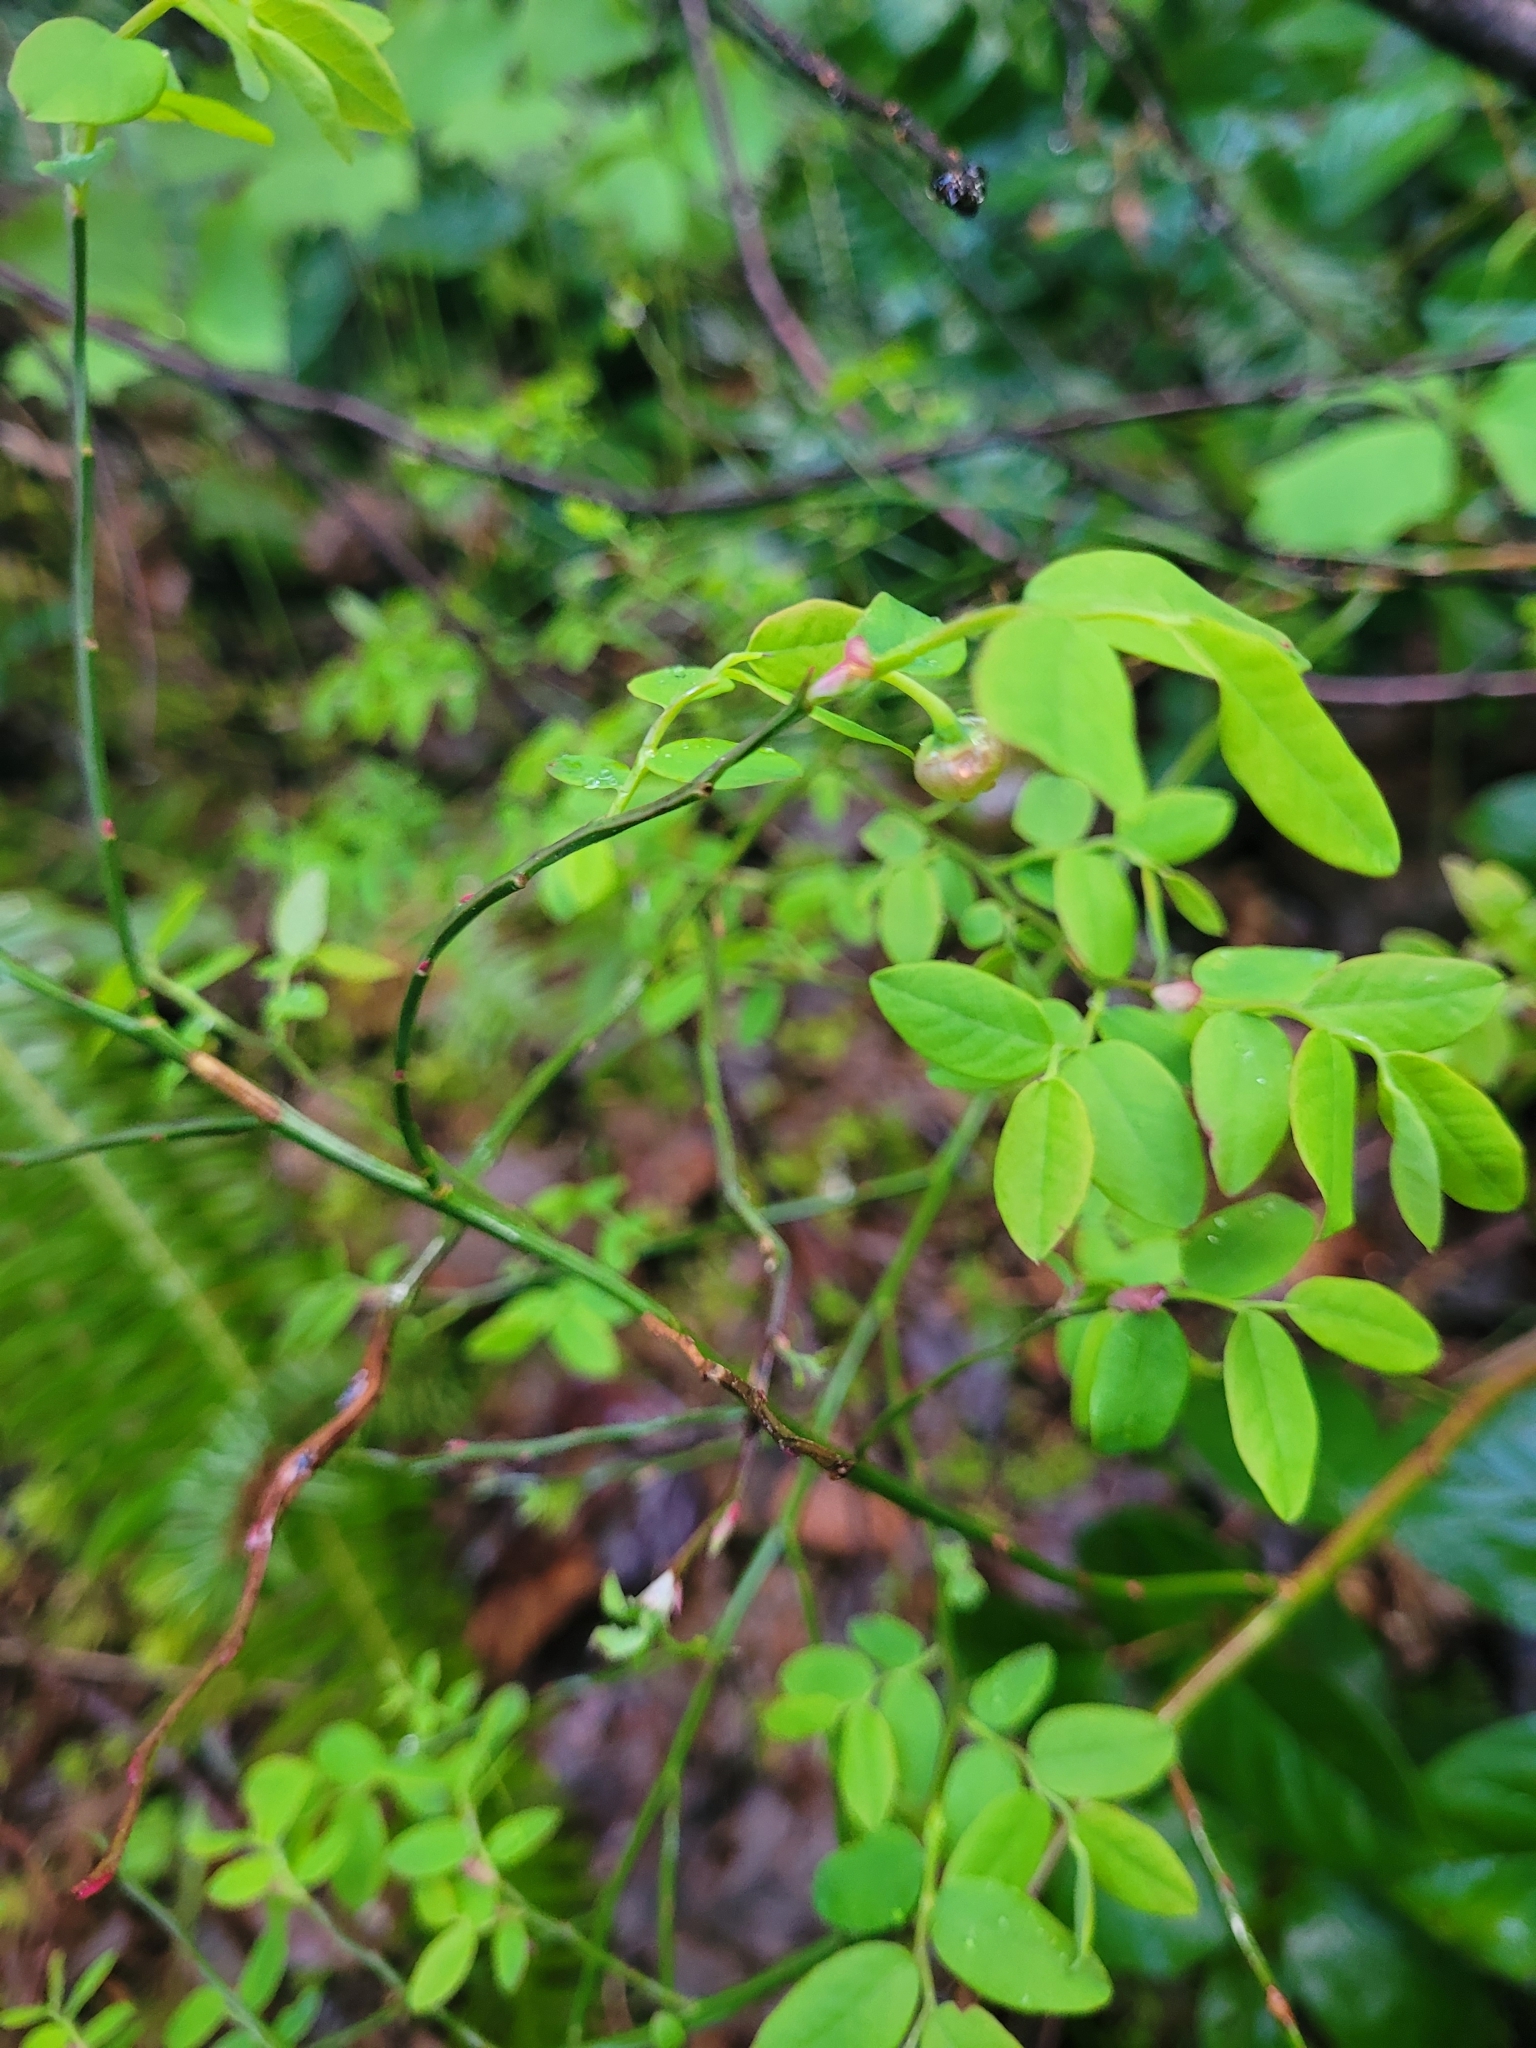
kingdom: Plantae
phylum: Tracheophyta
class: Magnoliopsida
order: Ericales
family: Ericaceae
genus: Vaccinium
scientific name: Vaccinium parvifolium
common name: Red-huckleberry
